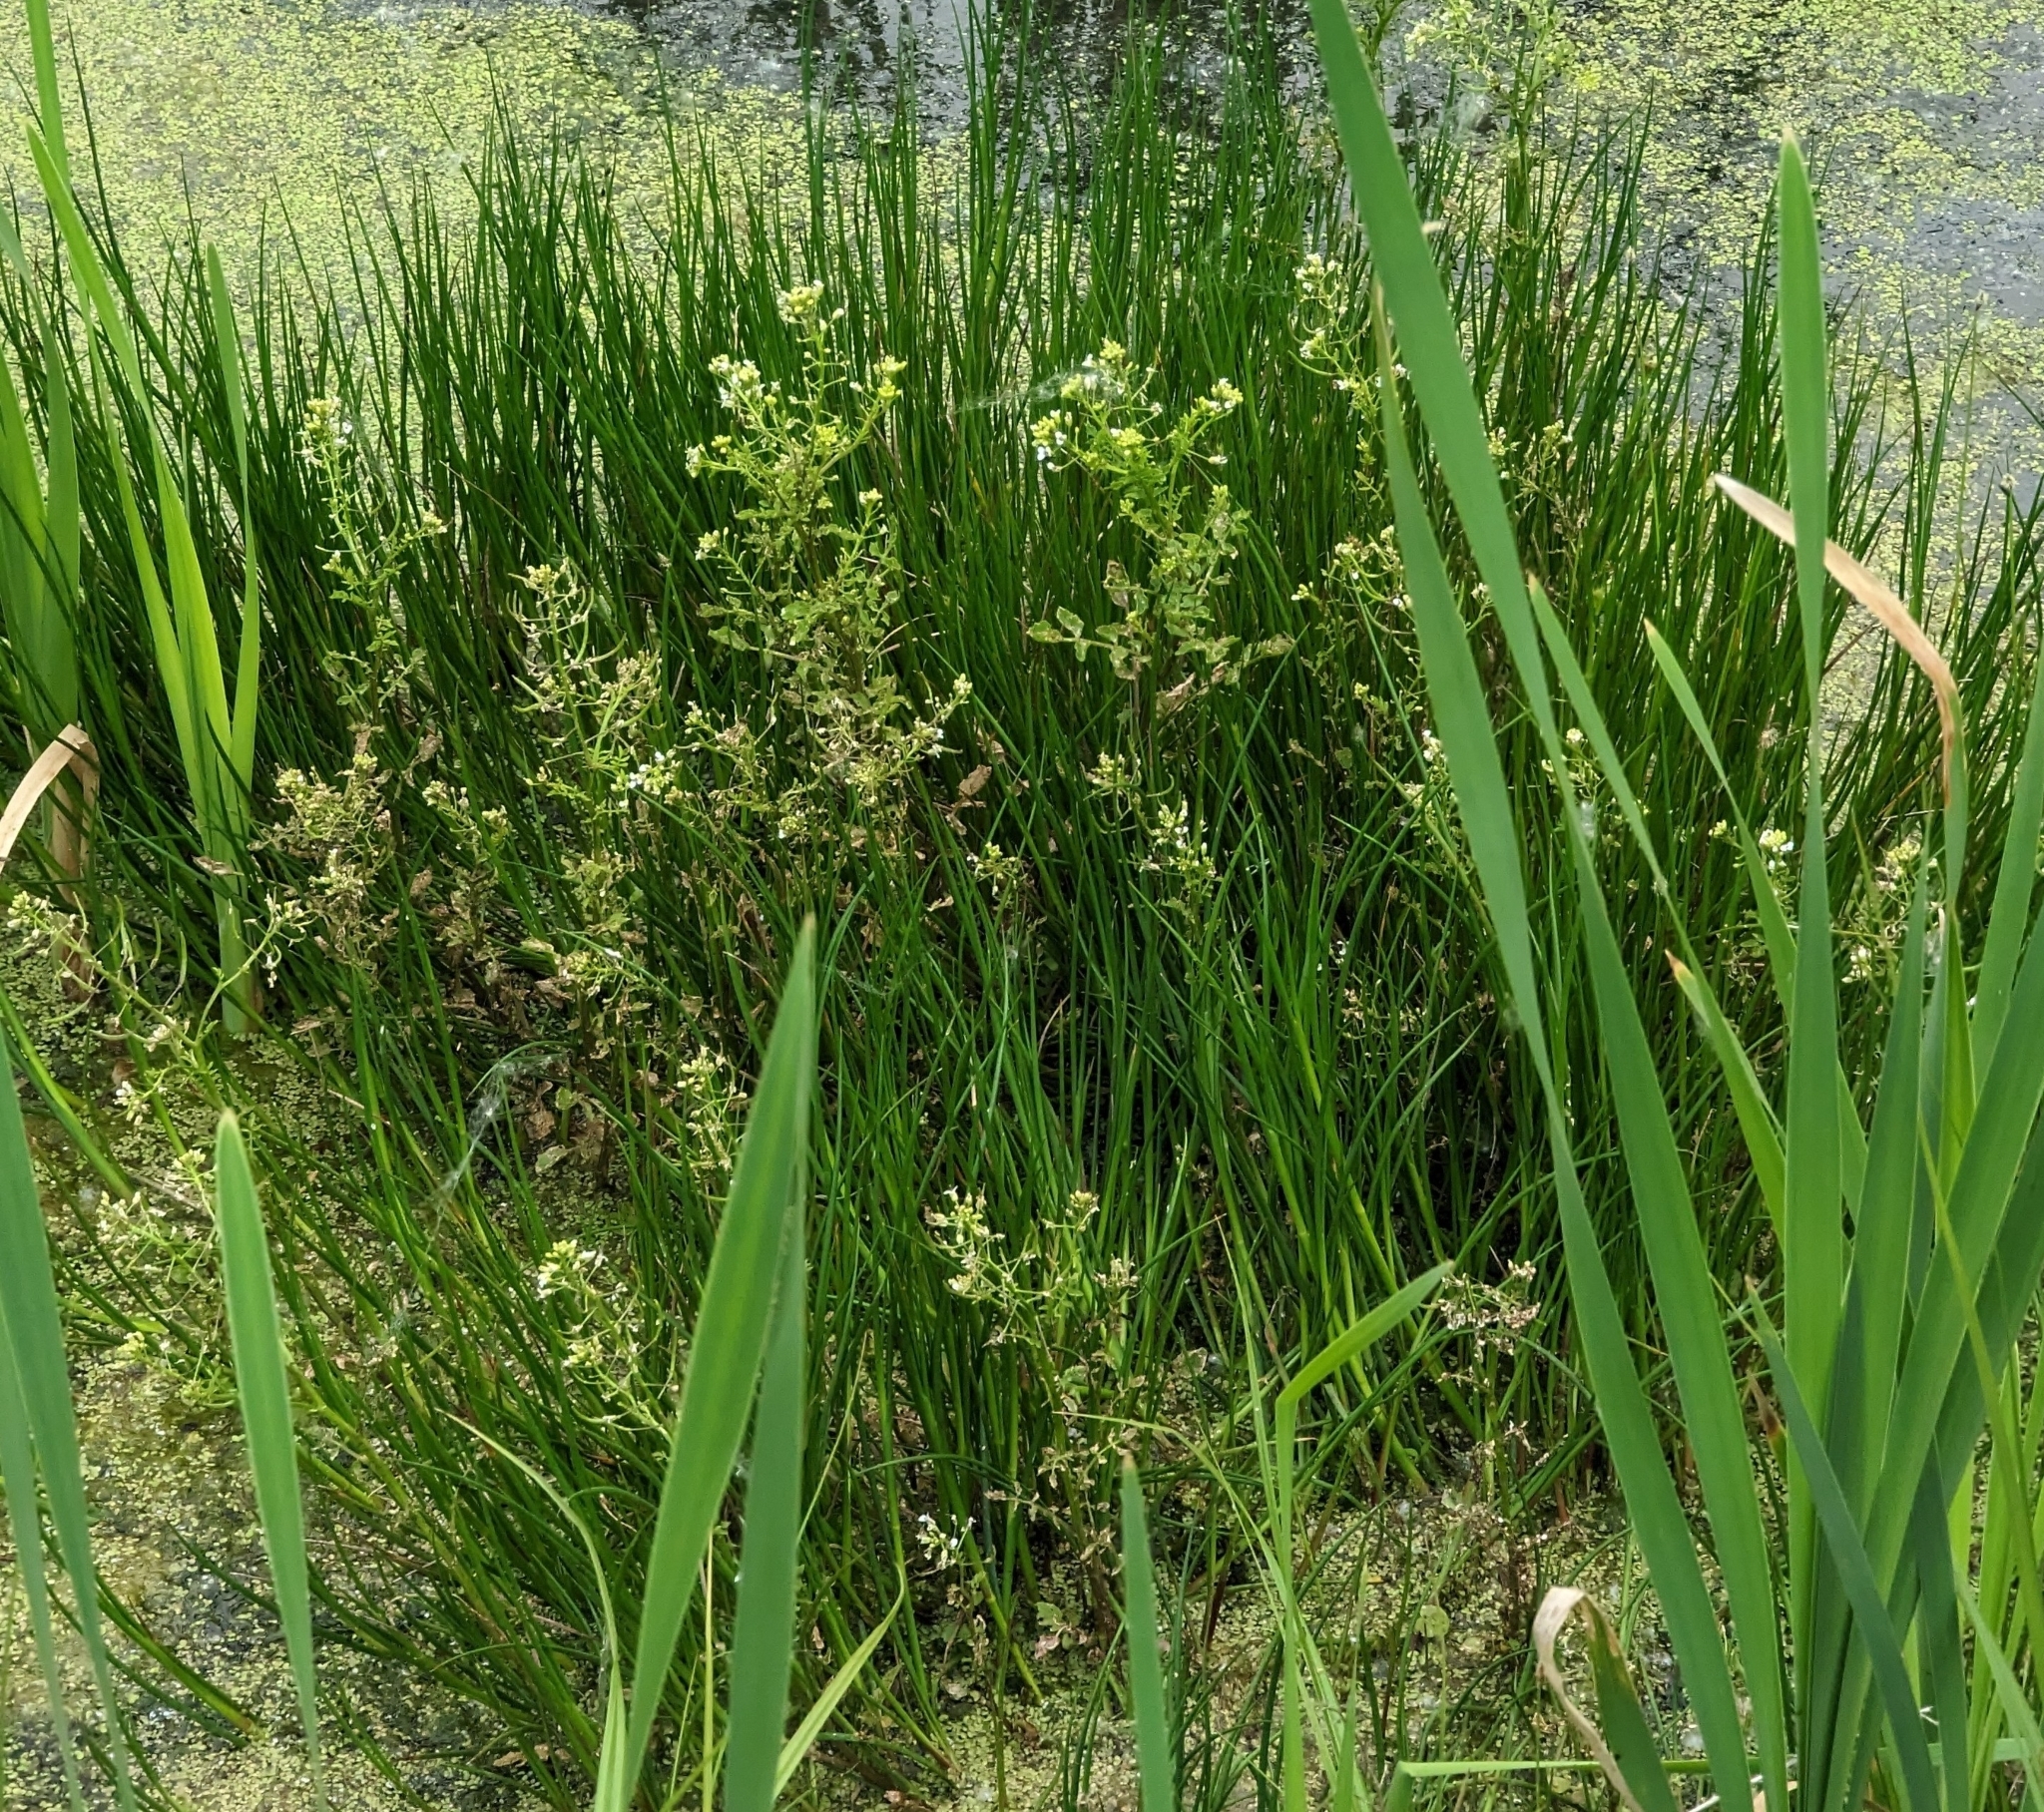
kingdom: Plantae
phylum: Tracheophyta
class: Magnoliopsida
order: Brassicales
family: Brassicaceae
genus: Nasturtium
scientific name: Nasturtium officinale
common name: Watercress
